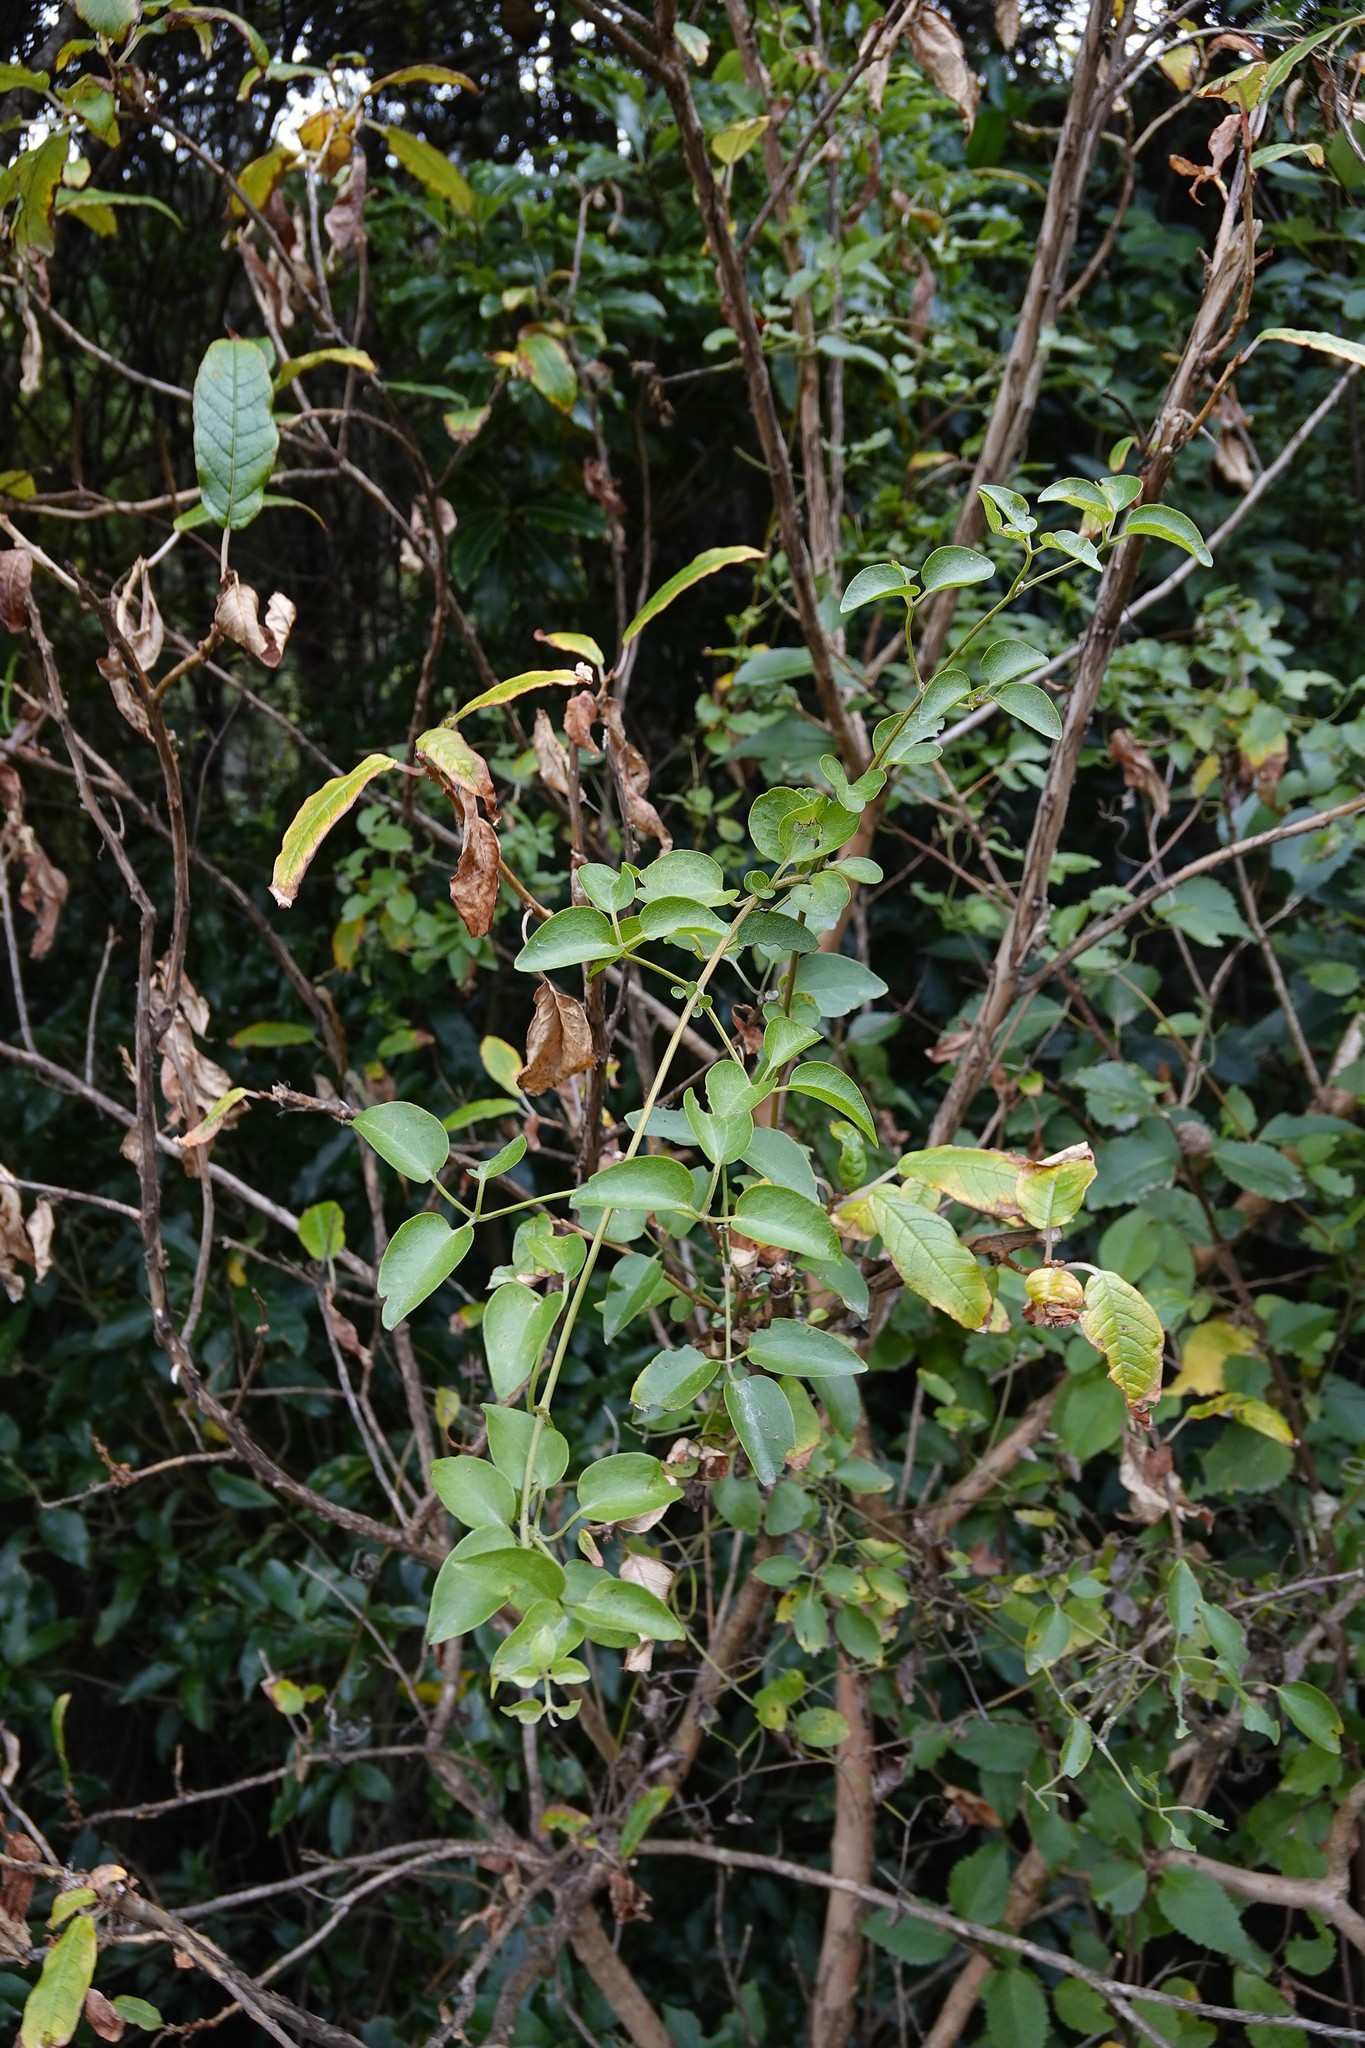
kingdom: Plantae
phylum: Tracheophyta
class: Magnoliopsida
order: Ranunculales
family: Ranunculaceae
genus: Clematis
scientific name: Clematis foetida
